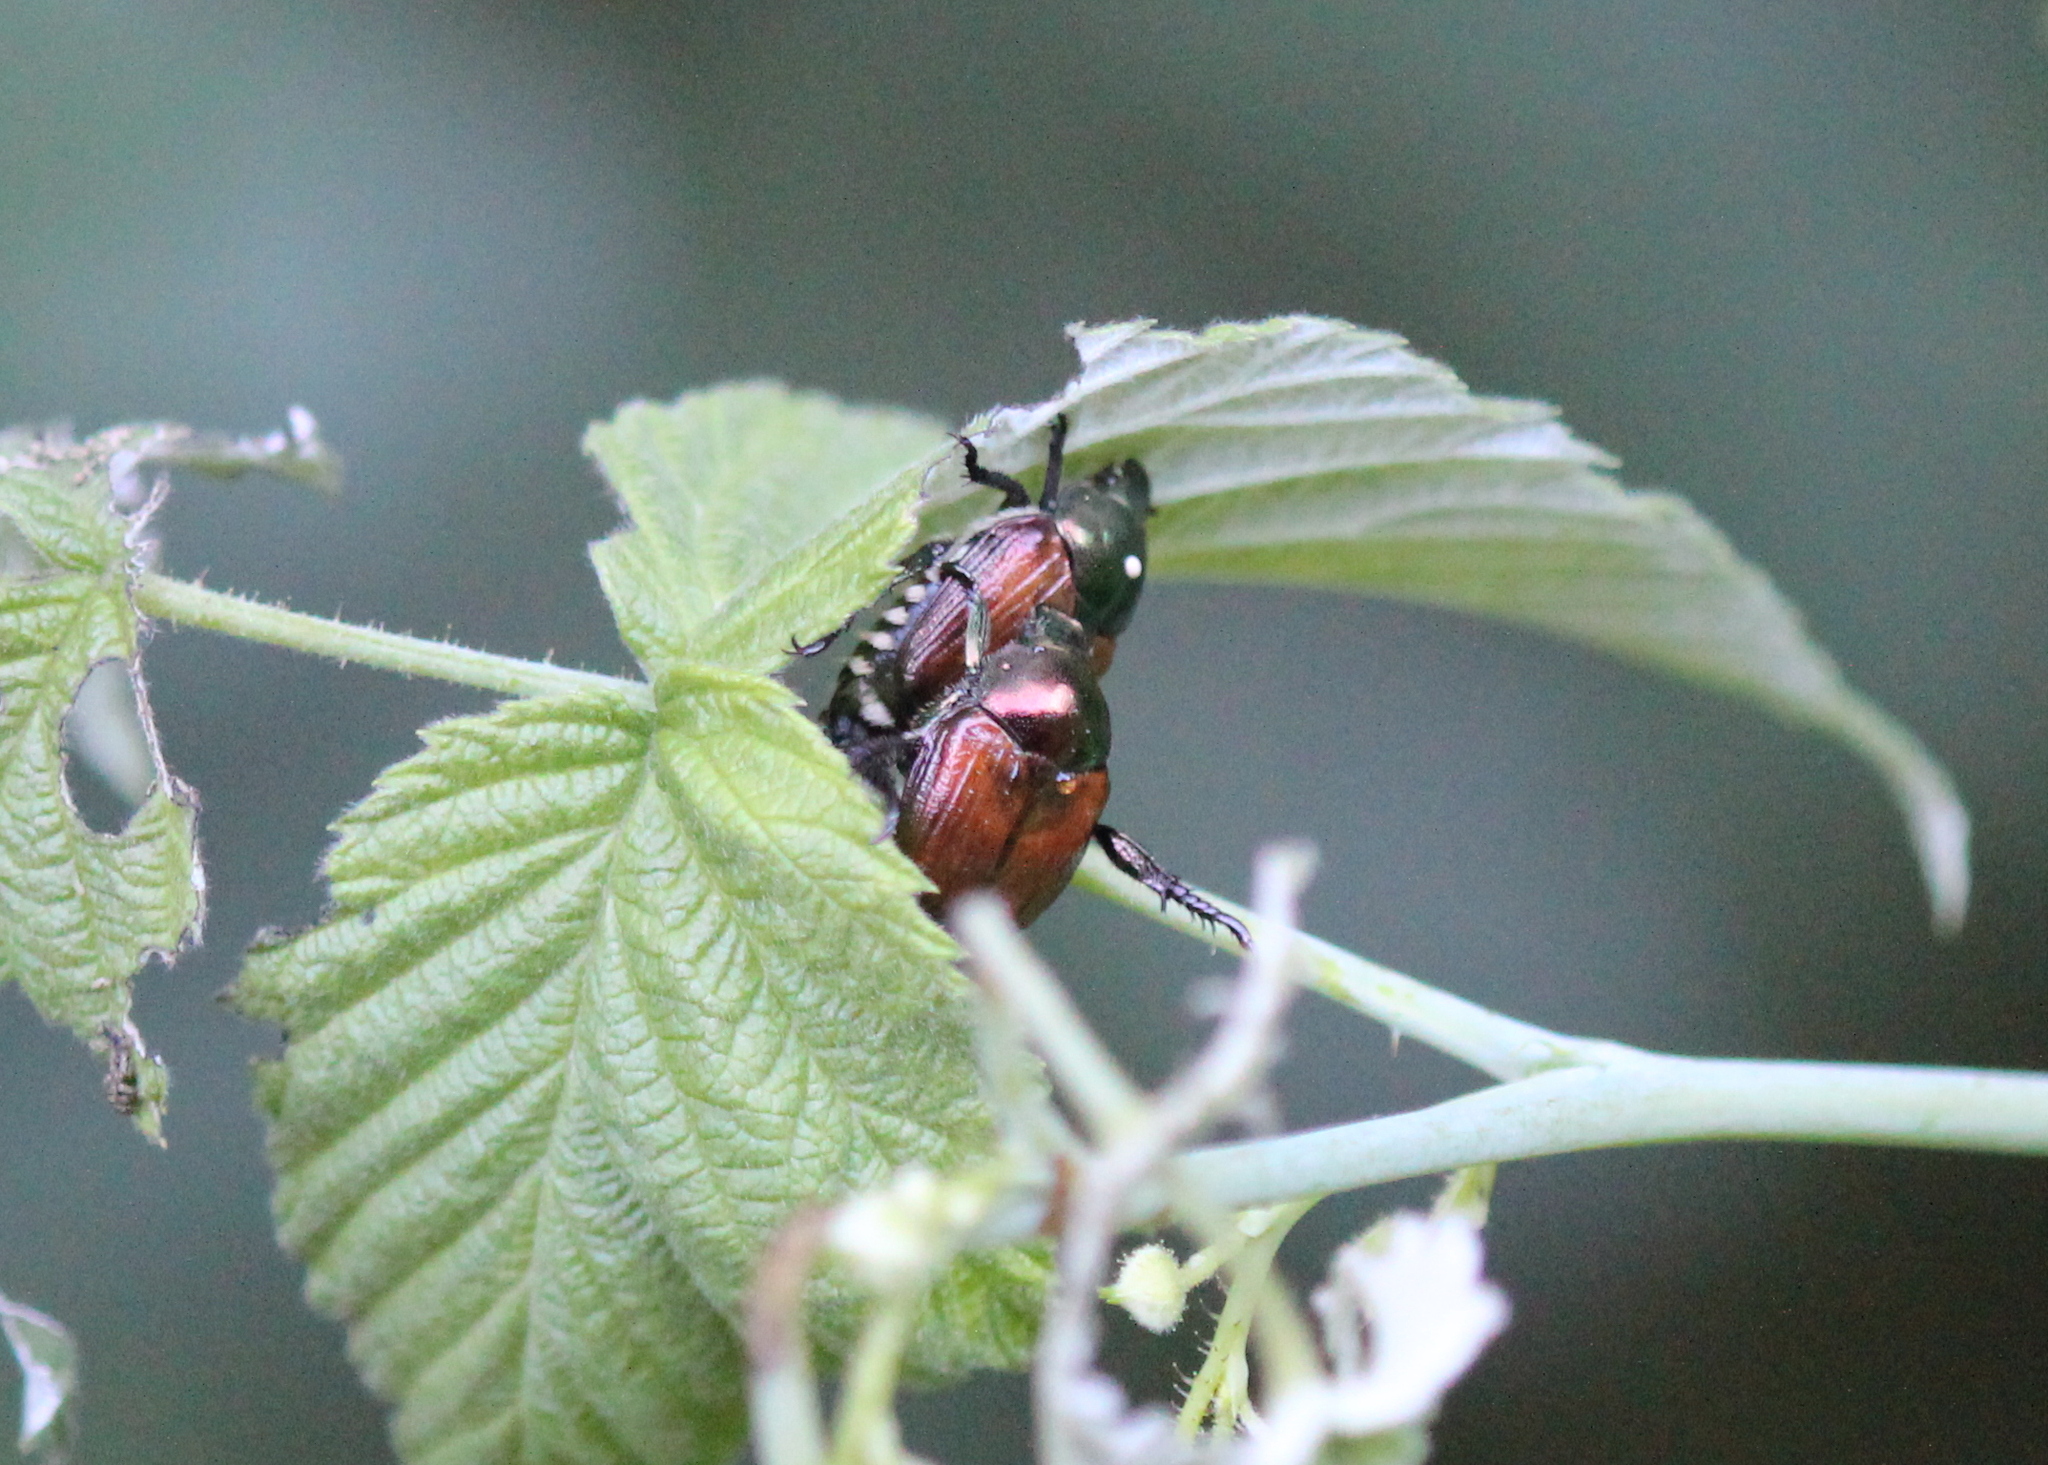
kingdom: Animalia
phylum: Arthropoda
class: Insecta
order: Diptera
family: Tachinidae
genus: Istocheta
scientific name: Istocheta aldrichi
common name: Parasitic wasp
